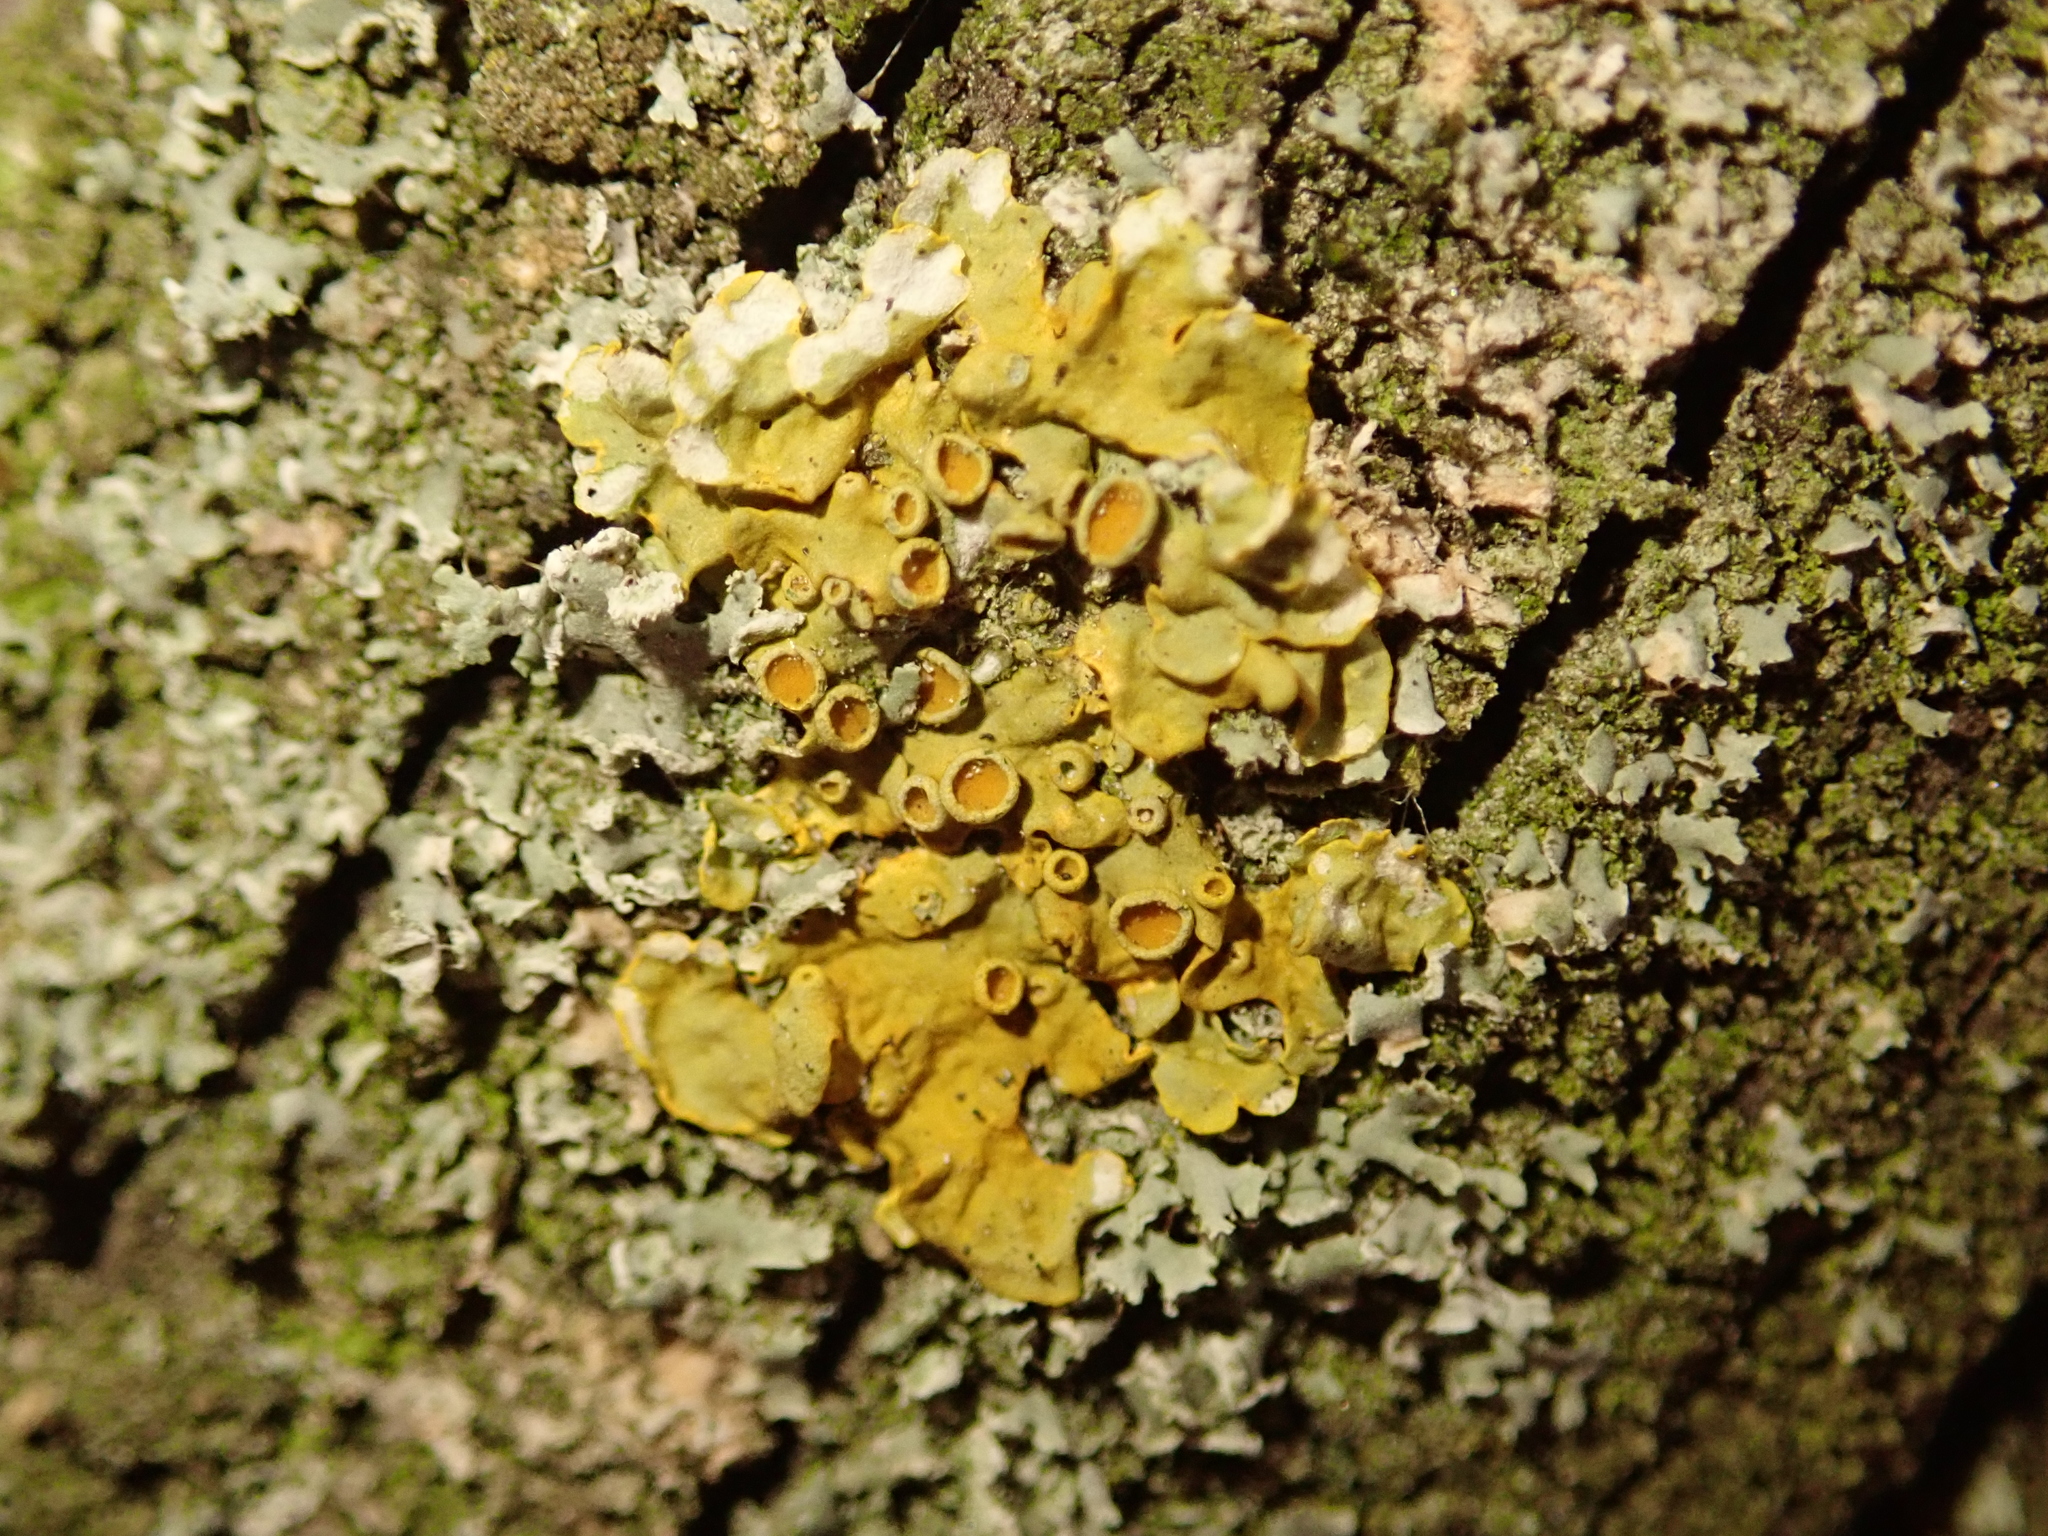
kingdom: Fungi
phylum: Ascomycota
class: Lecanoromycetes
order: Teloschistales
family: Teloschistaceae
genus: Xanthoria
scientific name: Xanthoria parietina
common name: Common orange lichen
